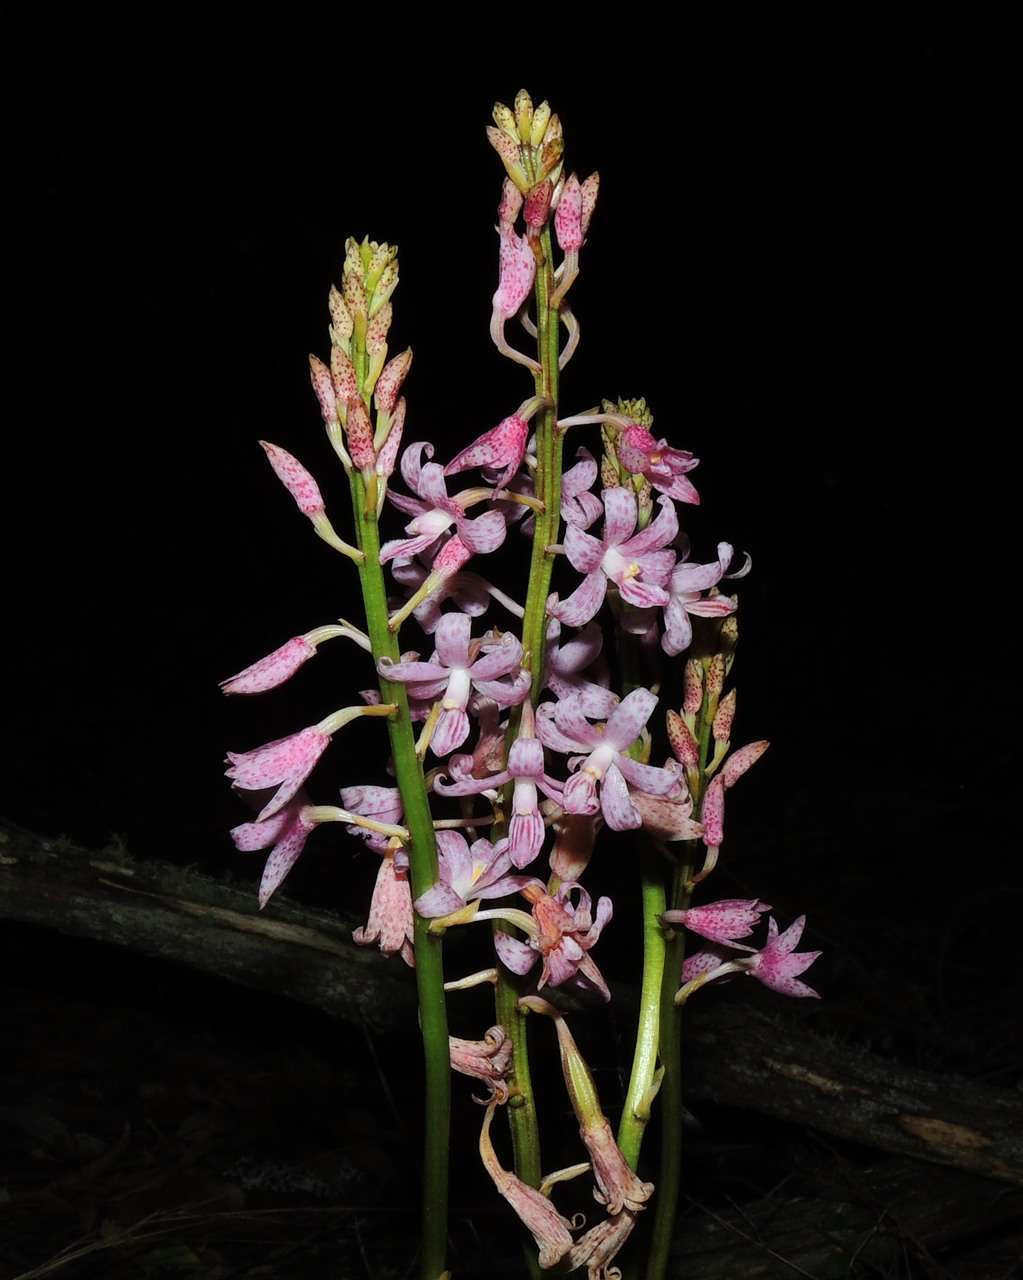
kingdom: Plantae
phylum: Tracheophyta
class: Liliopsida
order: Asparagales
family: Orchidaceae
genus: Dipodium
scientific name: Dipodium roseum
